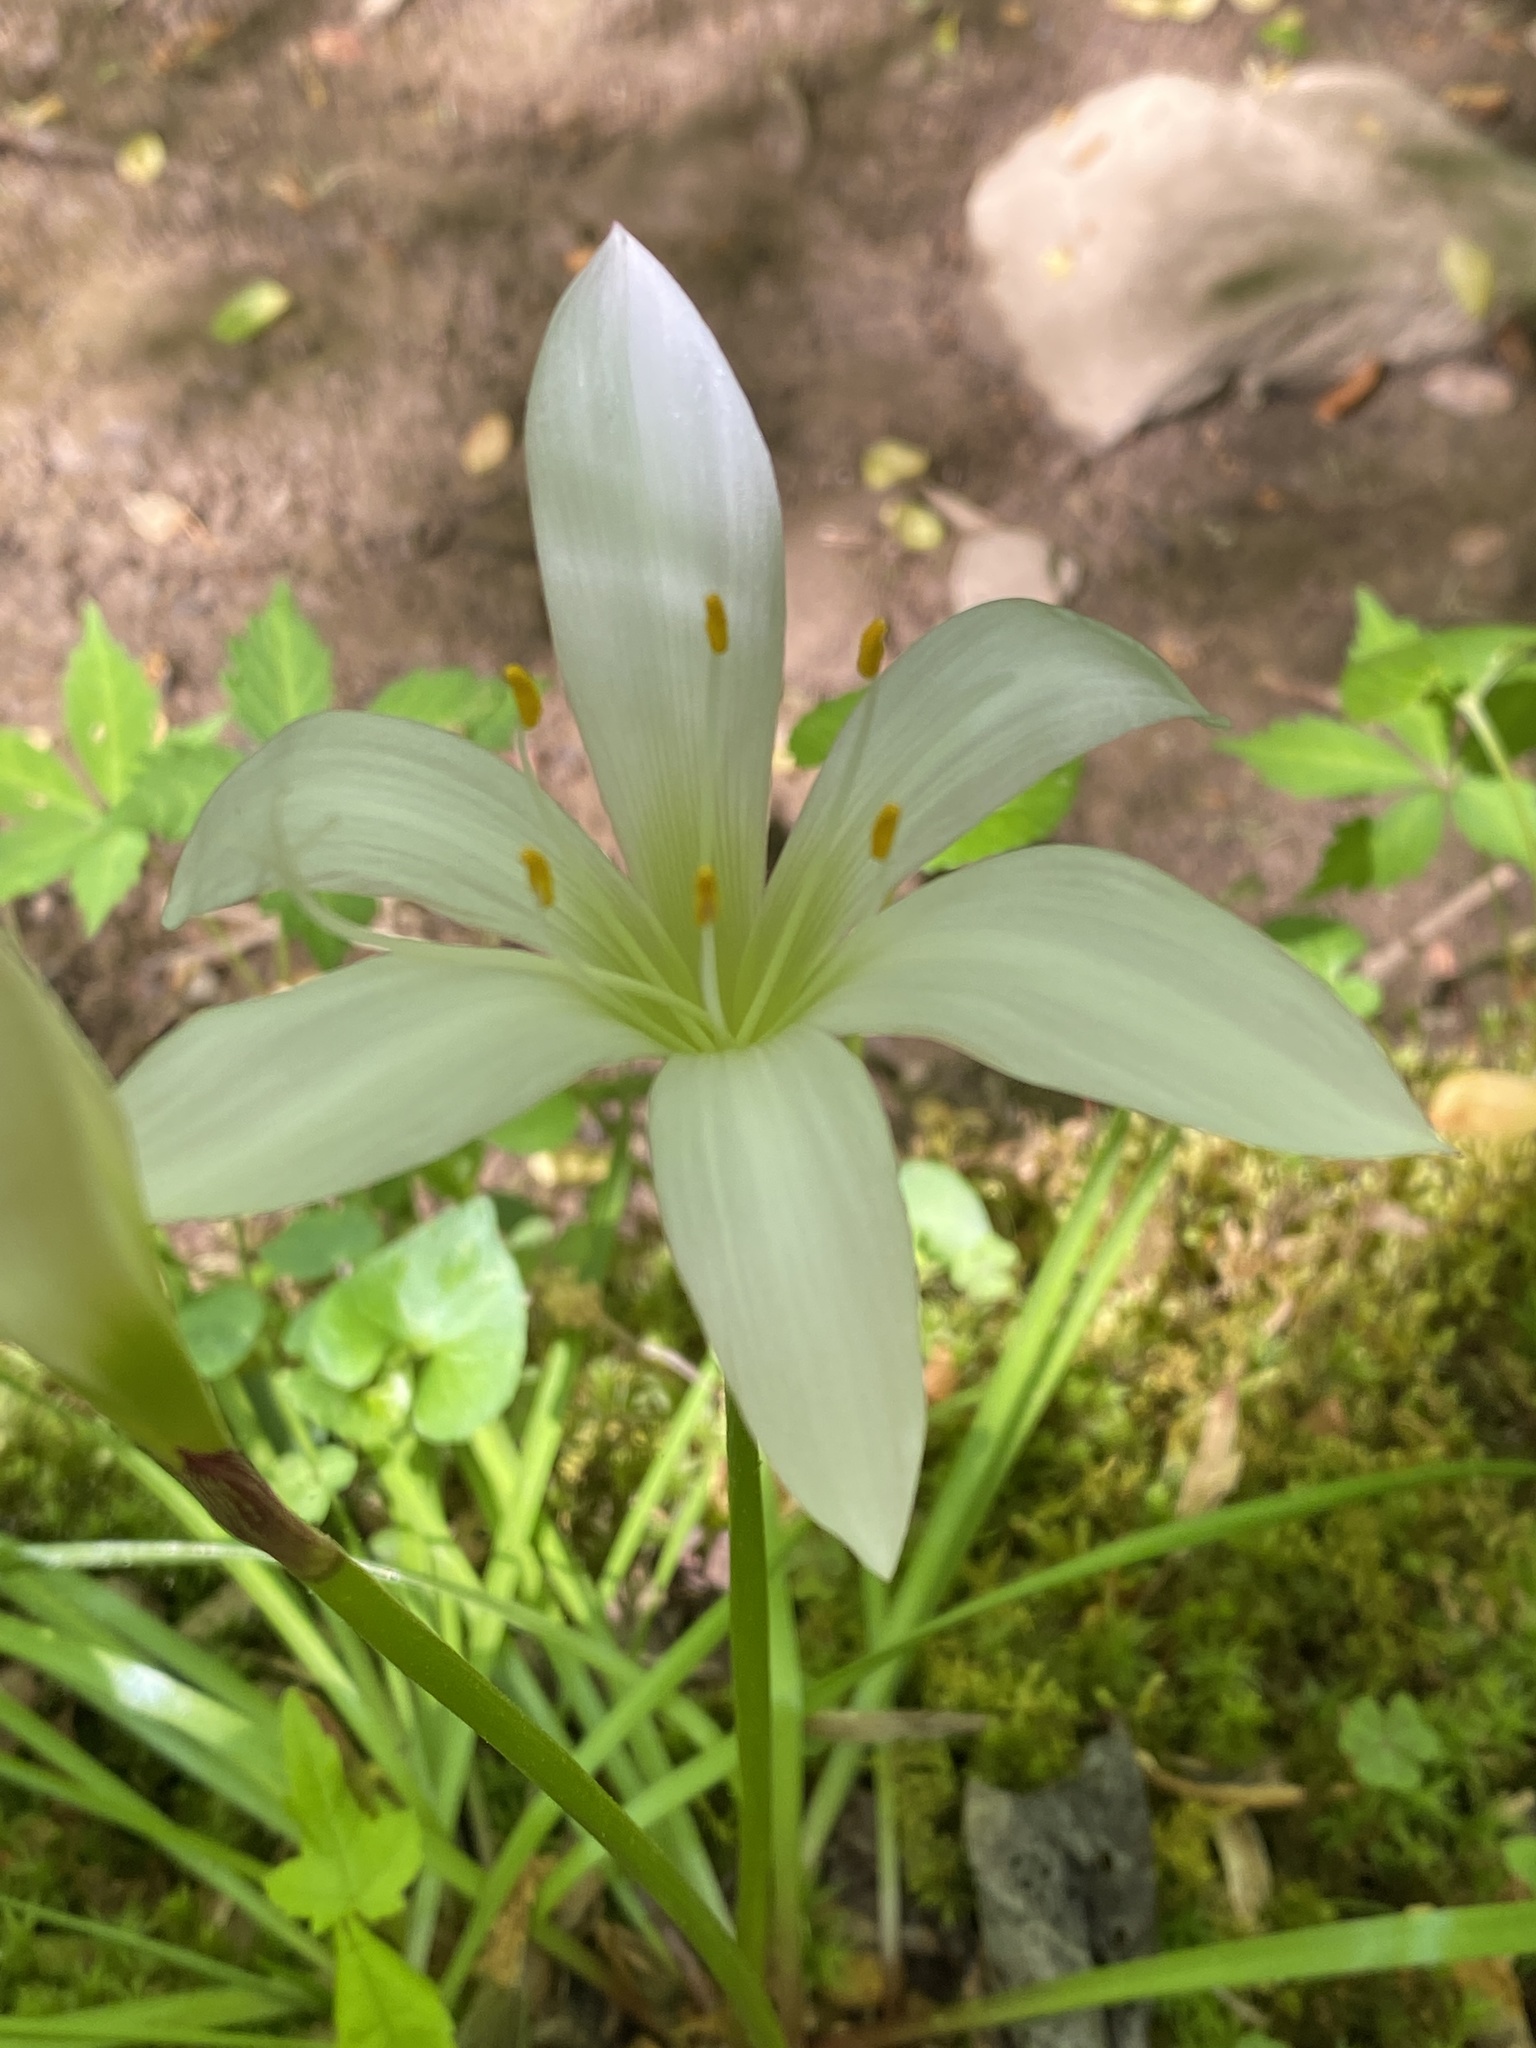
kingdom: Plantae
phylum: Tracheophyta
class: Liliopsida
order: Asparagales
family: Amaryllidaceae
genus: Zephyranthes
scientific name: Zephyranthes atamasco
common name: Atamasco lily
